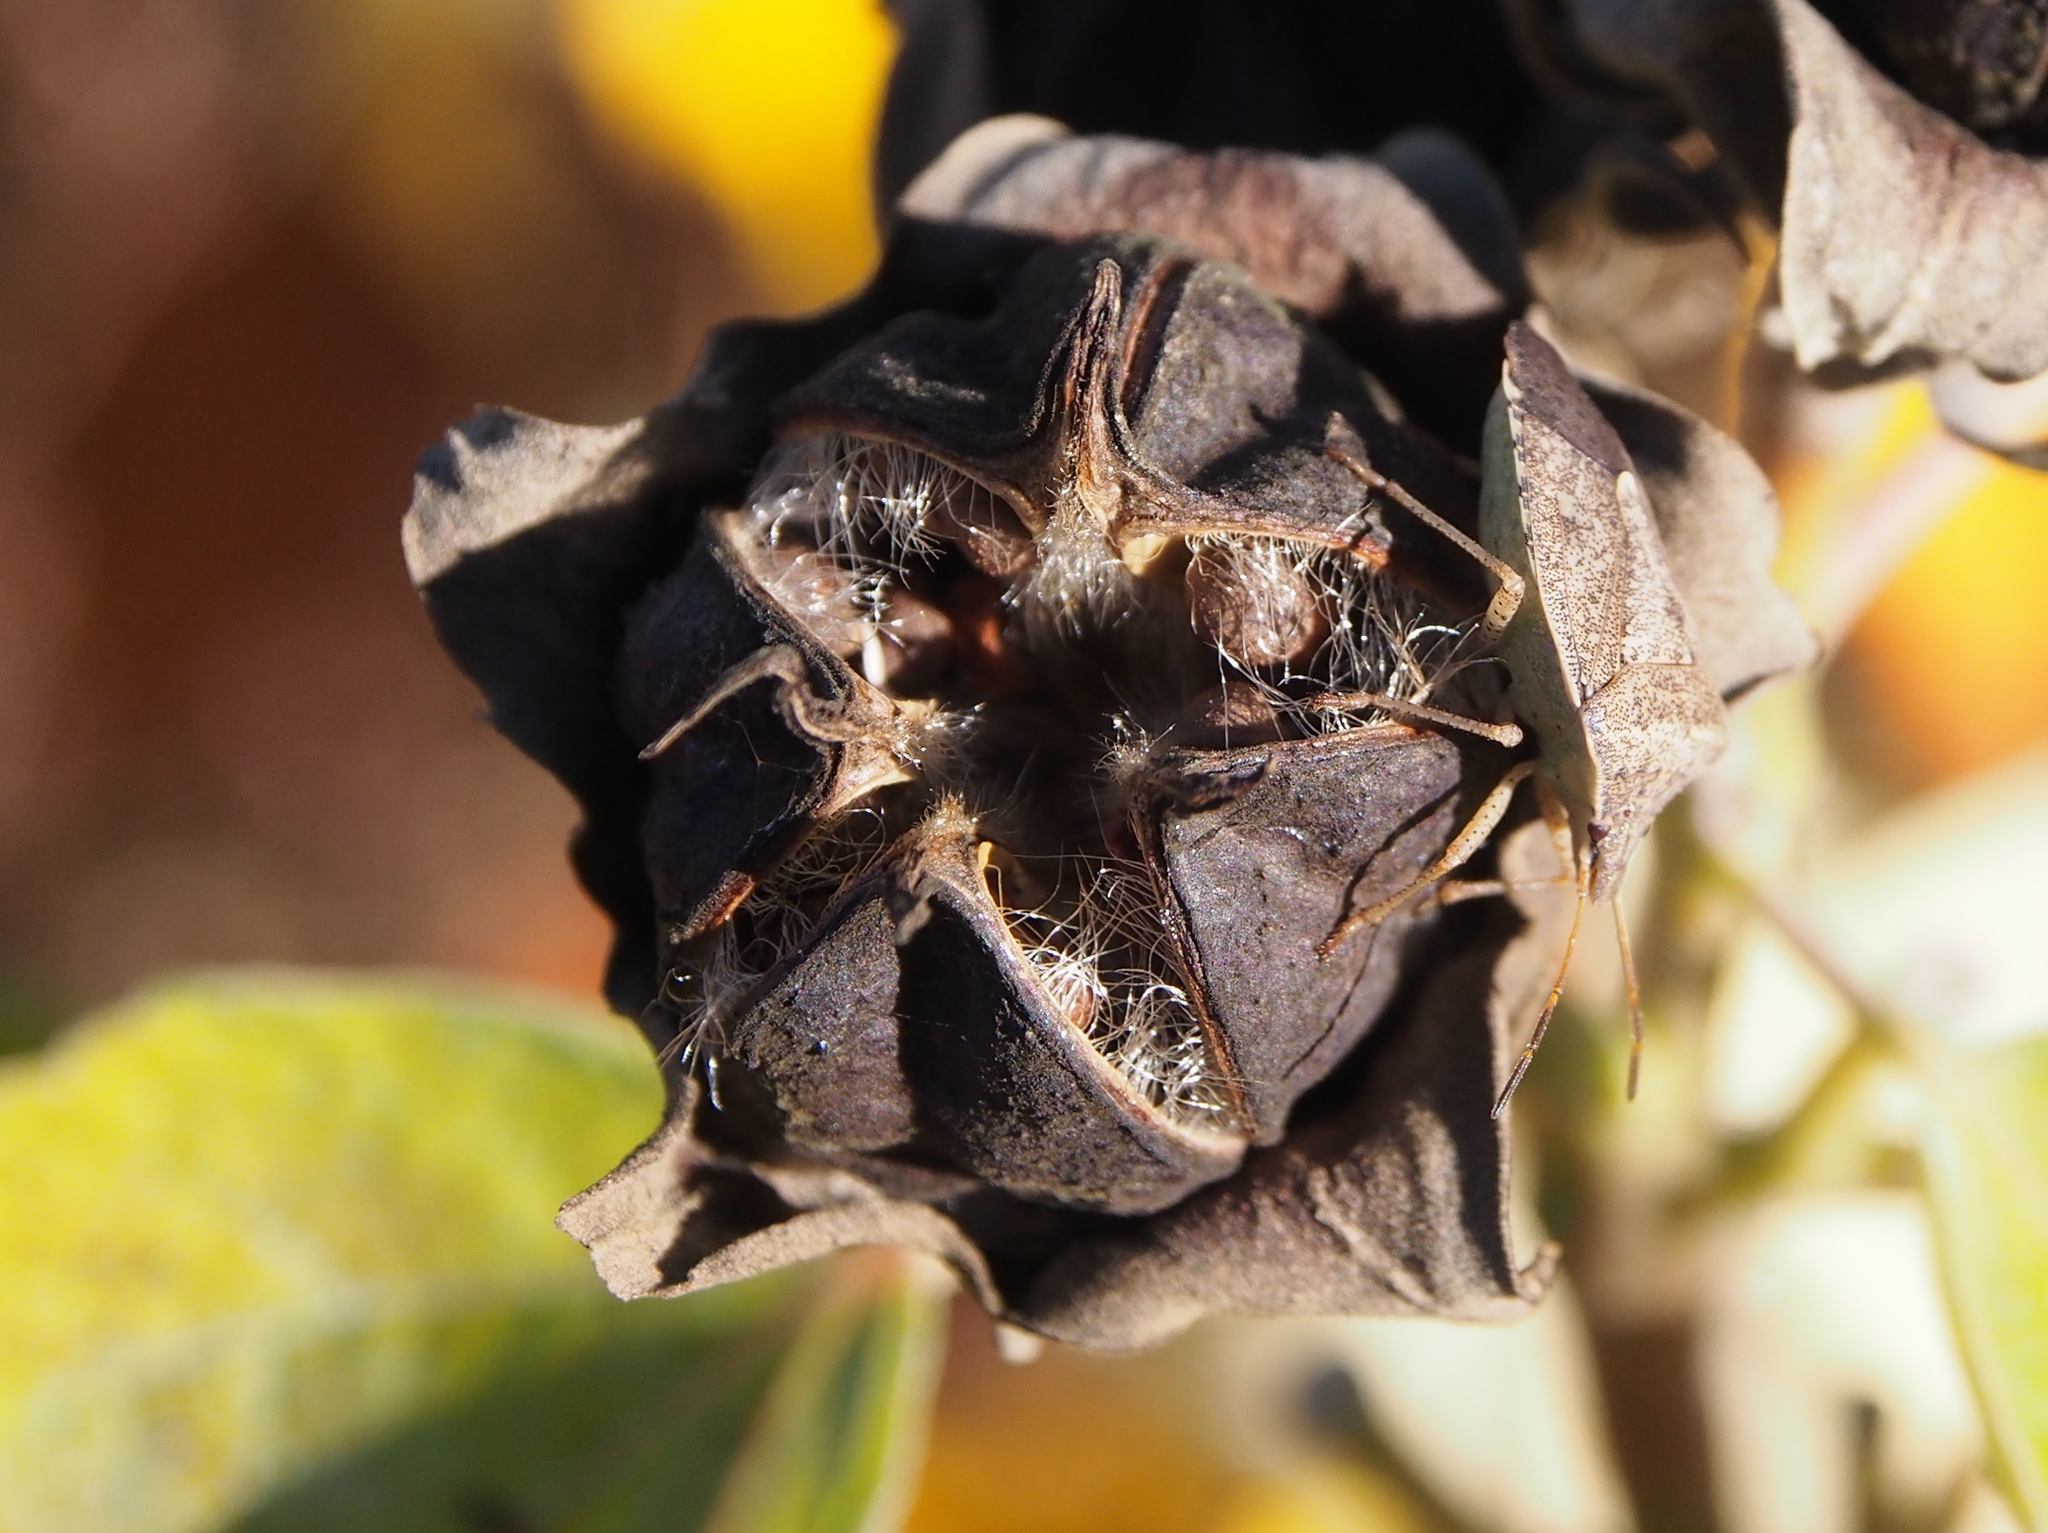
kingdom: Plantae
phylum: Tracheophyta
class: Magnoliopsida
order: Malvales
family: Malvaceae
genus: Hibiscus
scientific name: Hibiscus moscheutos
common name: Common rose-mallow
